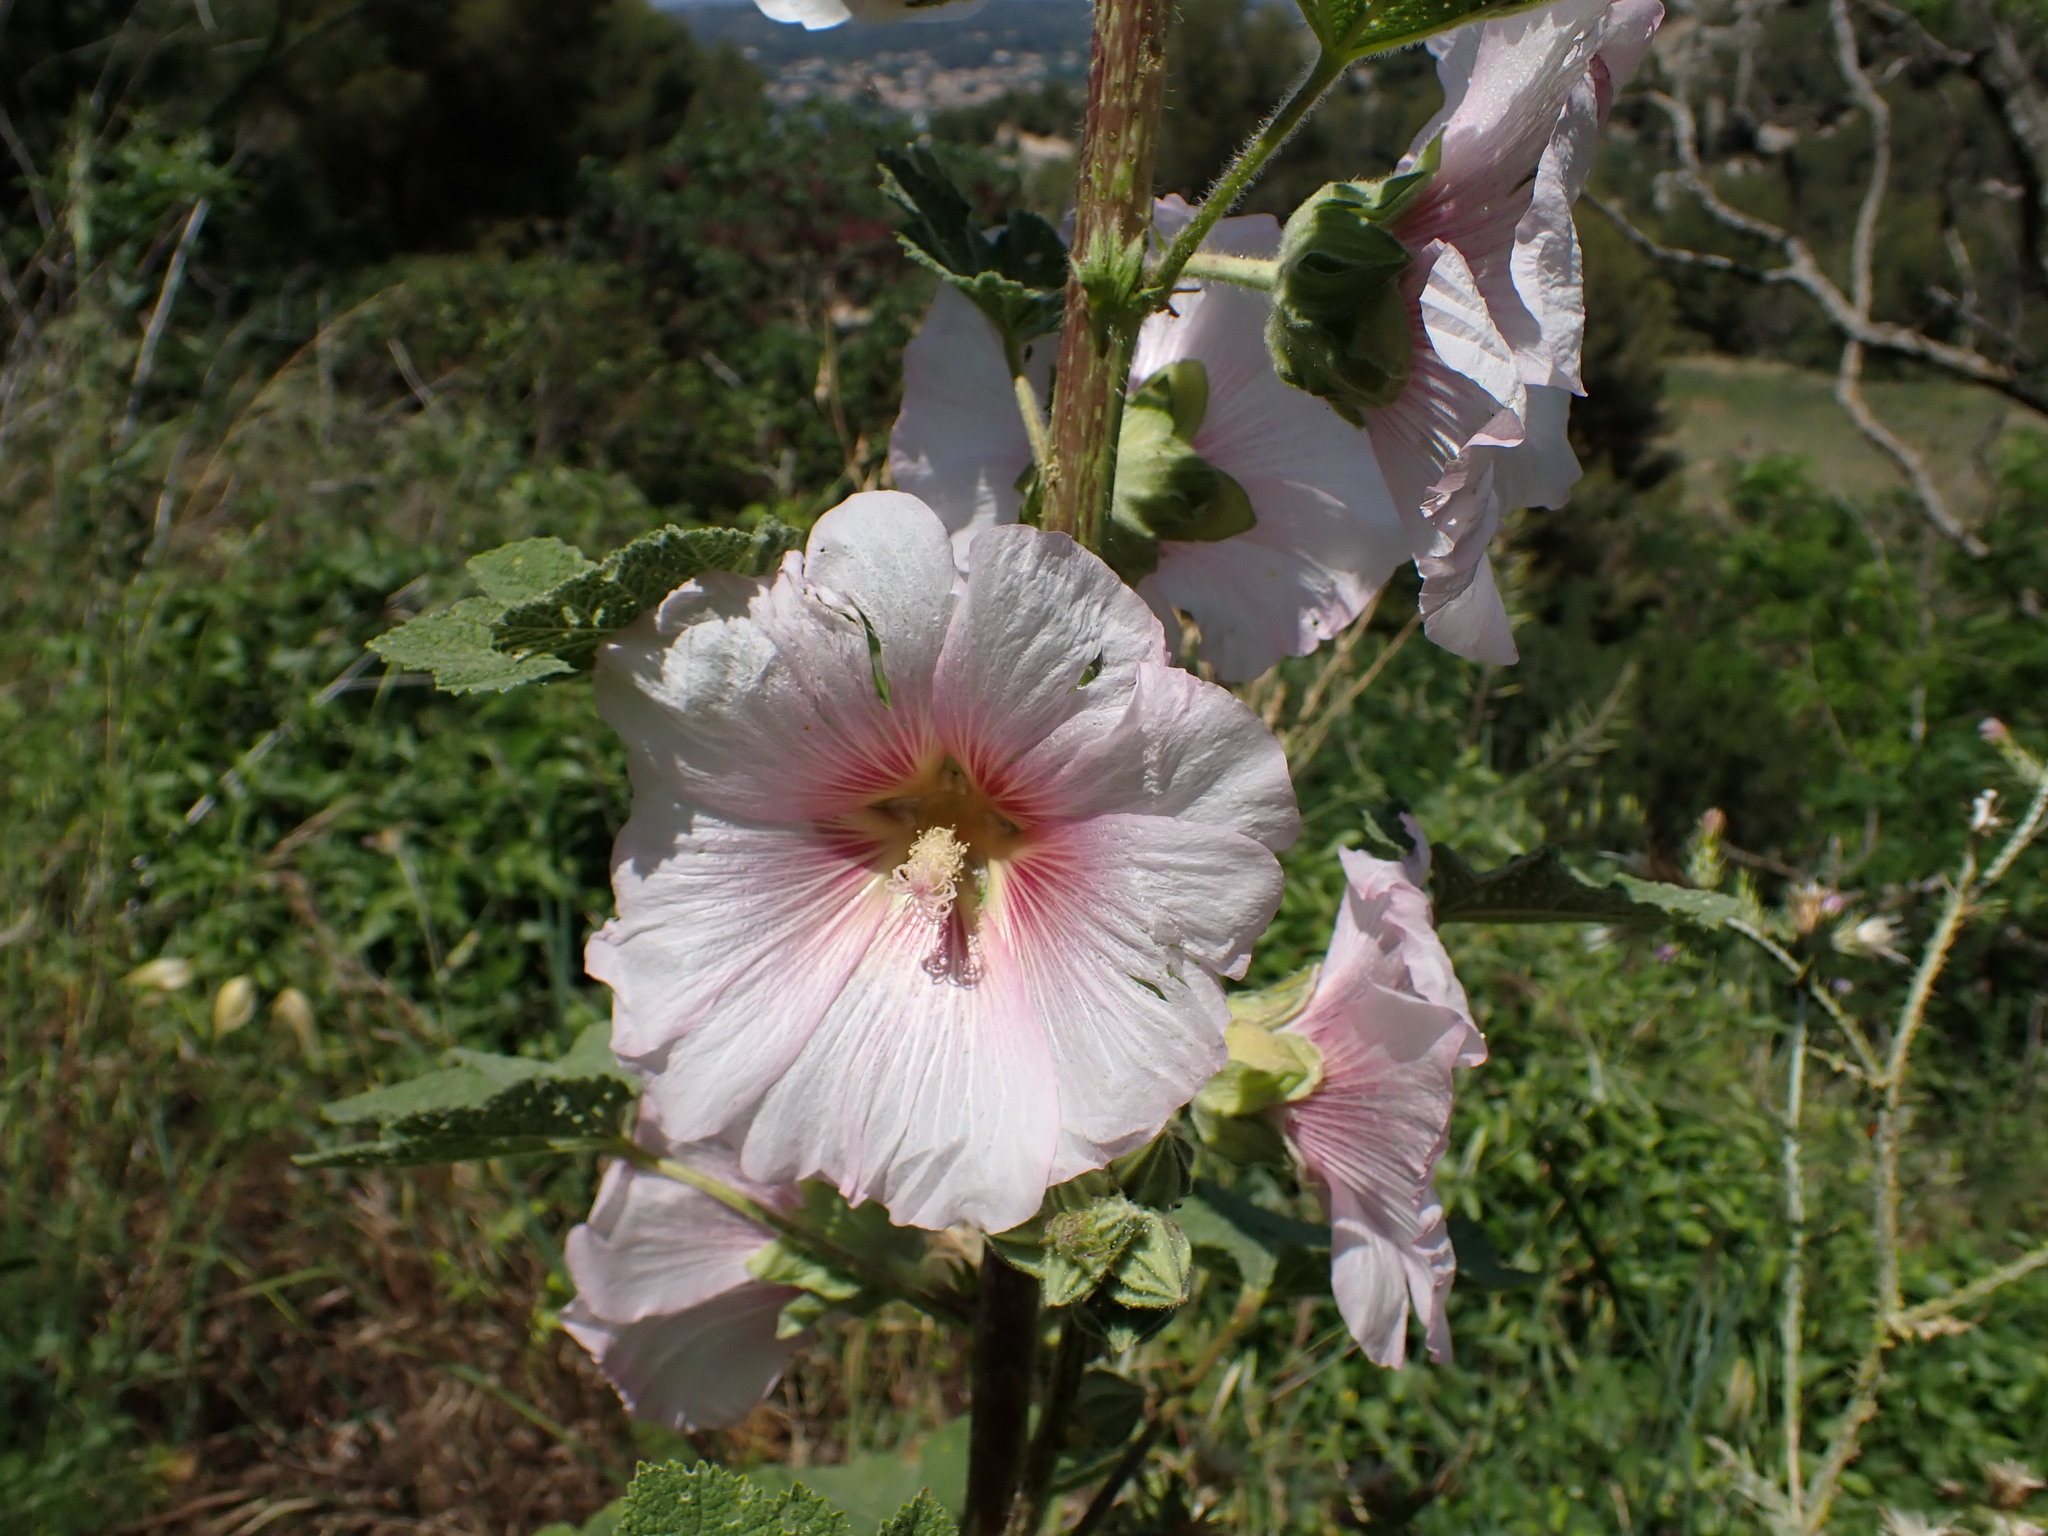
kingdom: Plantae
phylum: Tracheophyta
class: Magnoliopsida
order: Malvales
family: Malvaceae
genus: Alcea
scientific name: Alcea rosea
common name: Hollyhock
